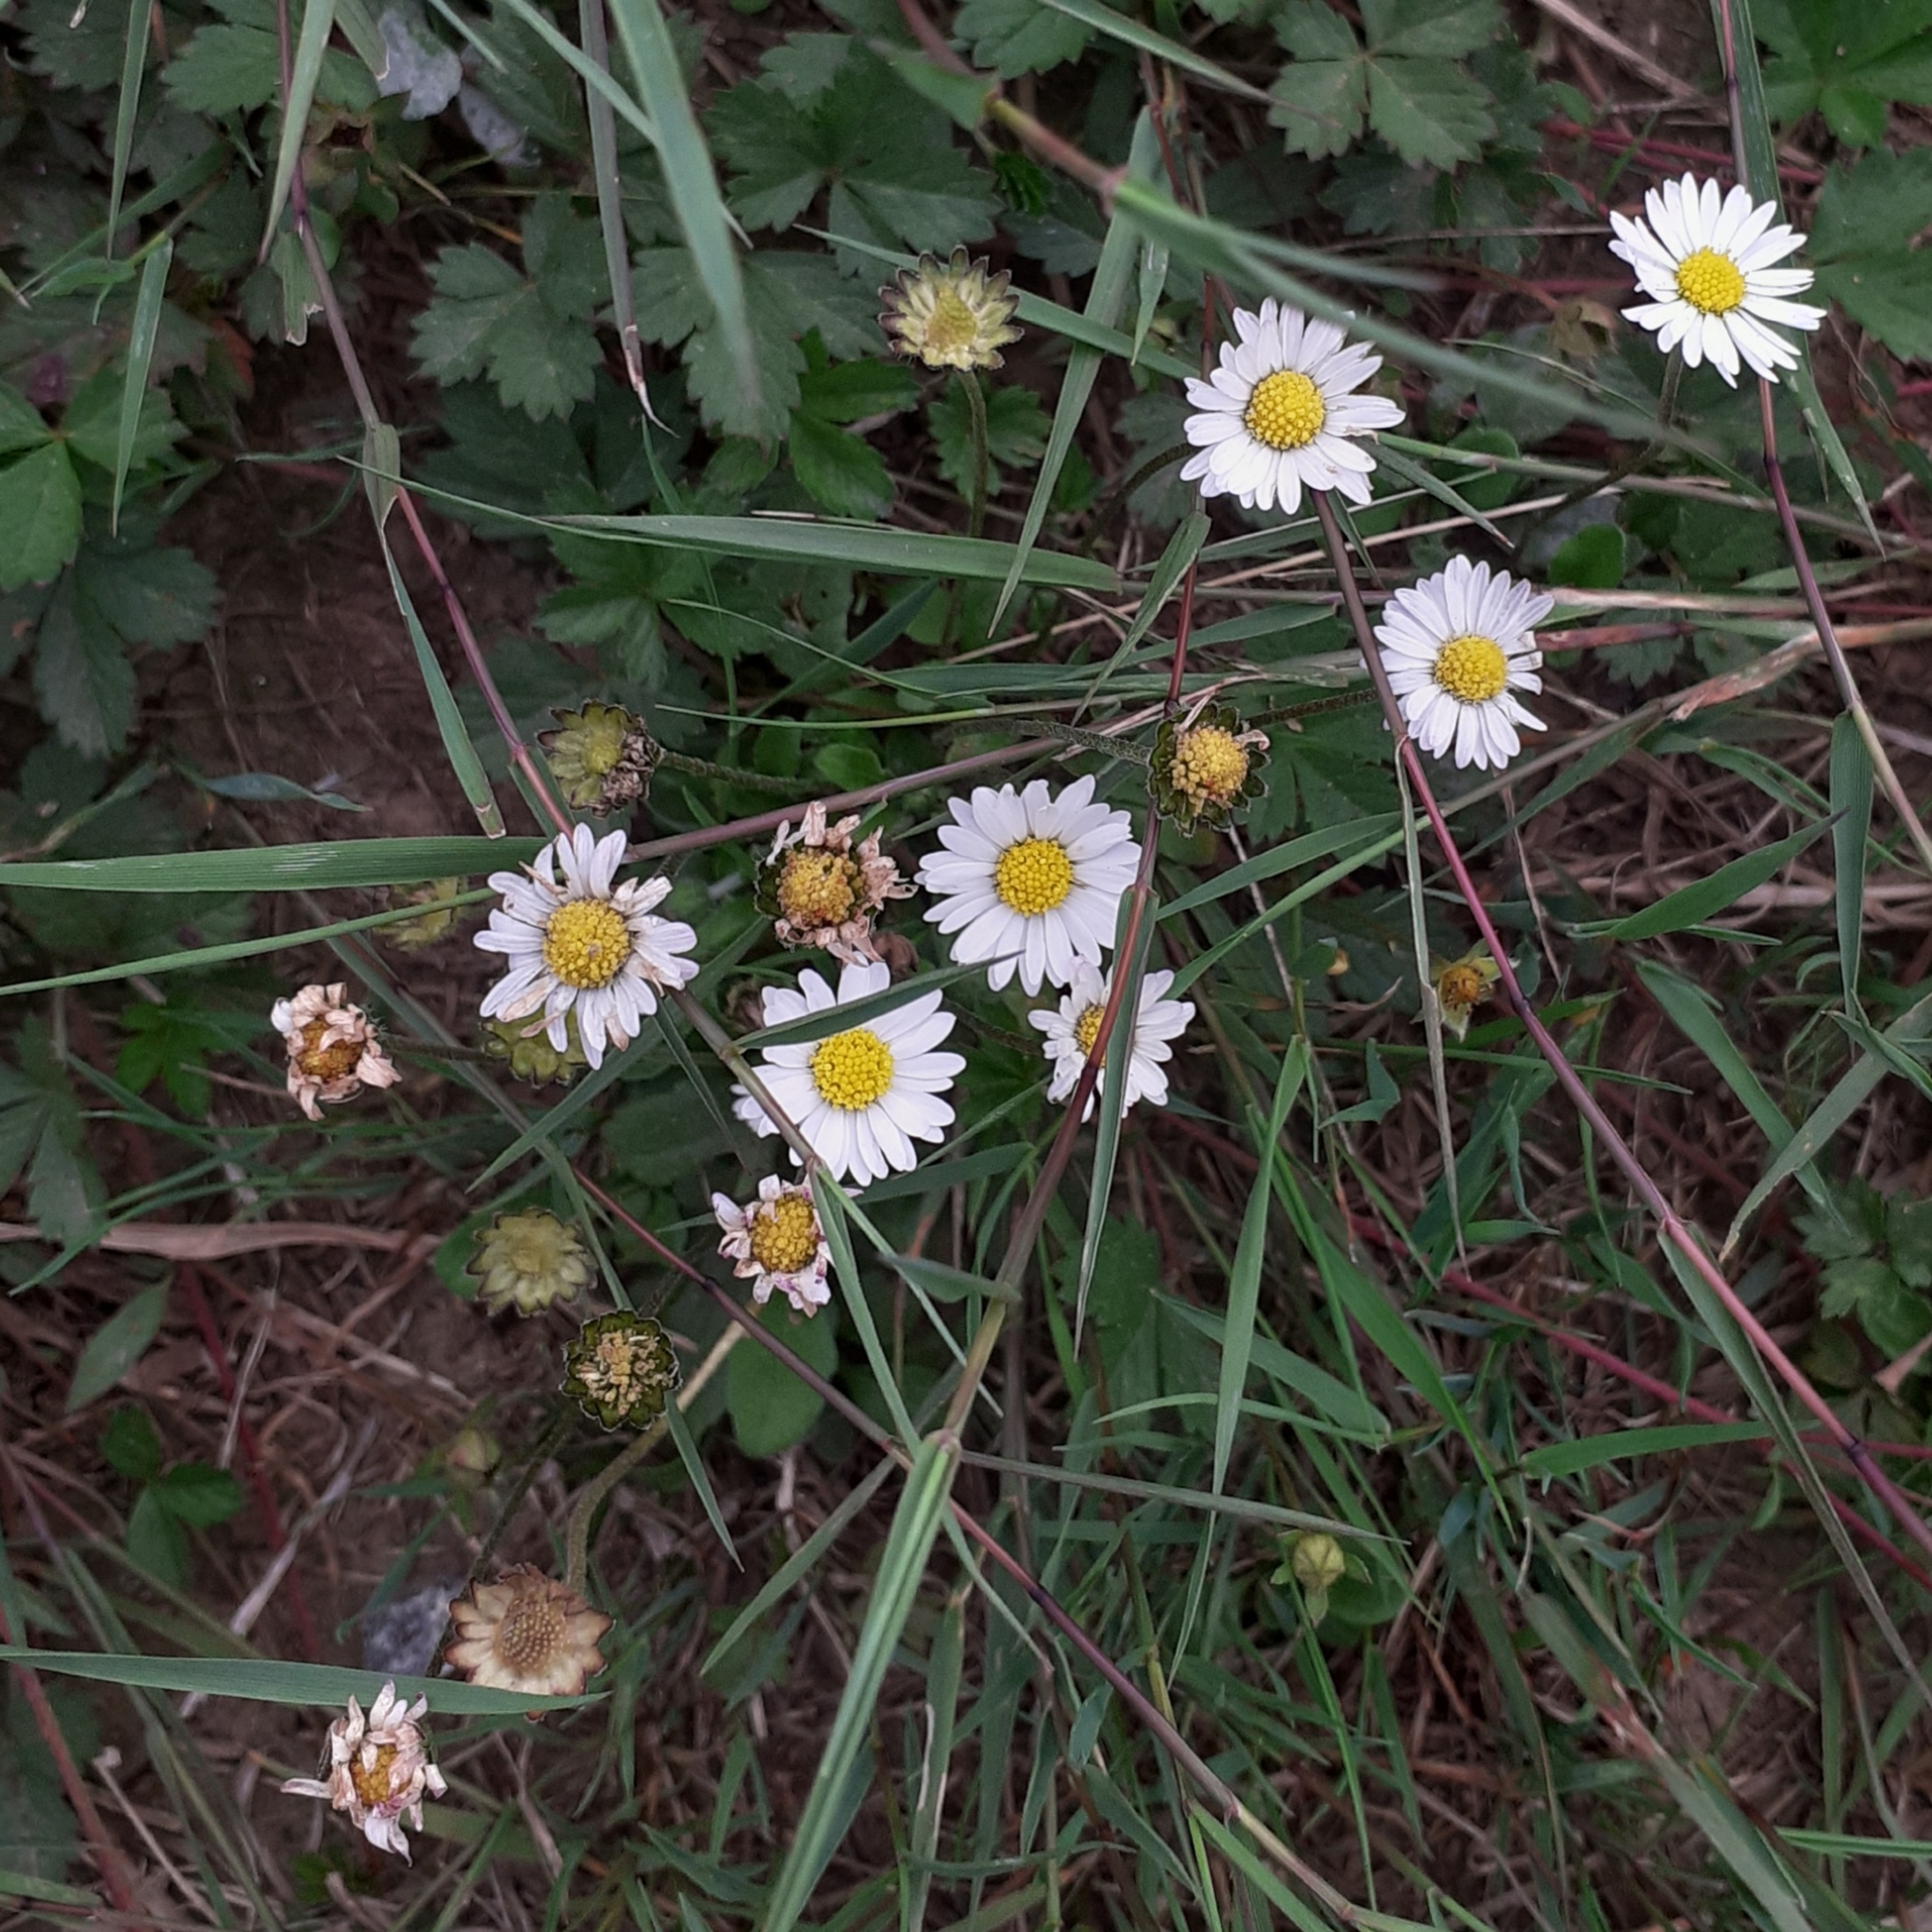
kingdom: Plantae
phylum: Tracheophyta
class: Magnoliopsida
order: Asterales
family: Asteraceae
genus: Bellis
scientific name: Bellis perennis
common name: Lawndaisy
